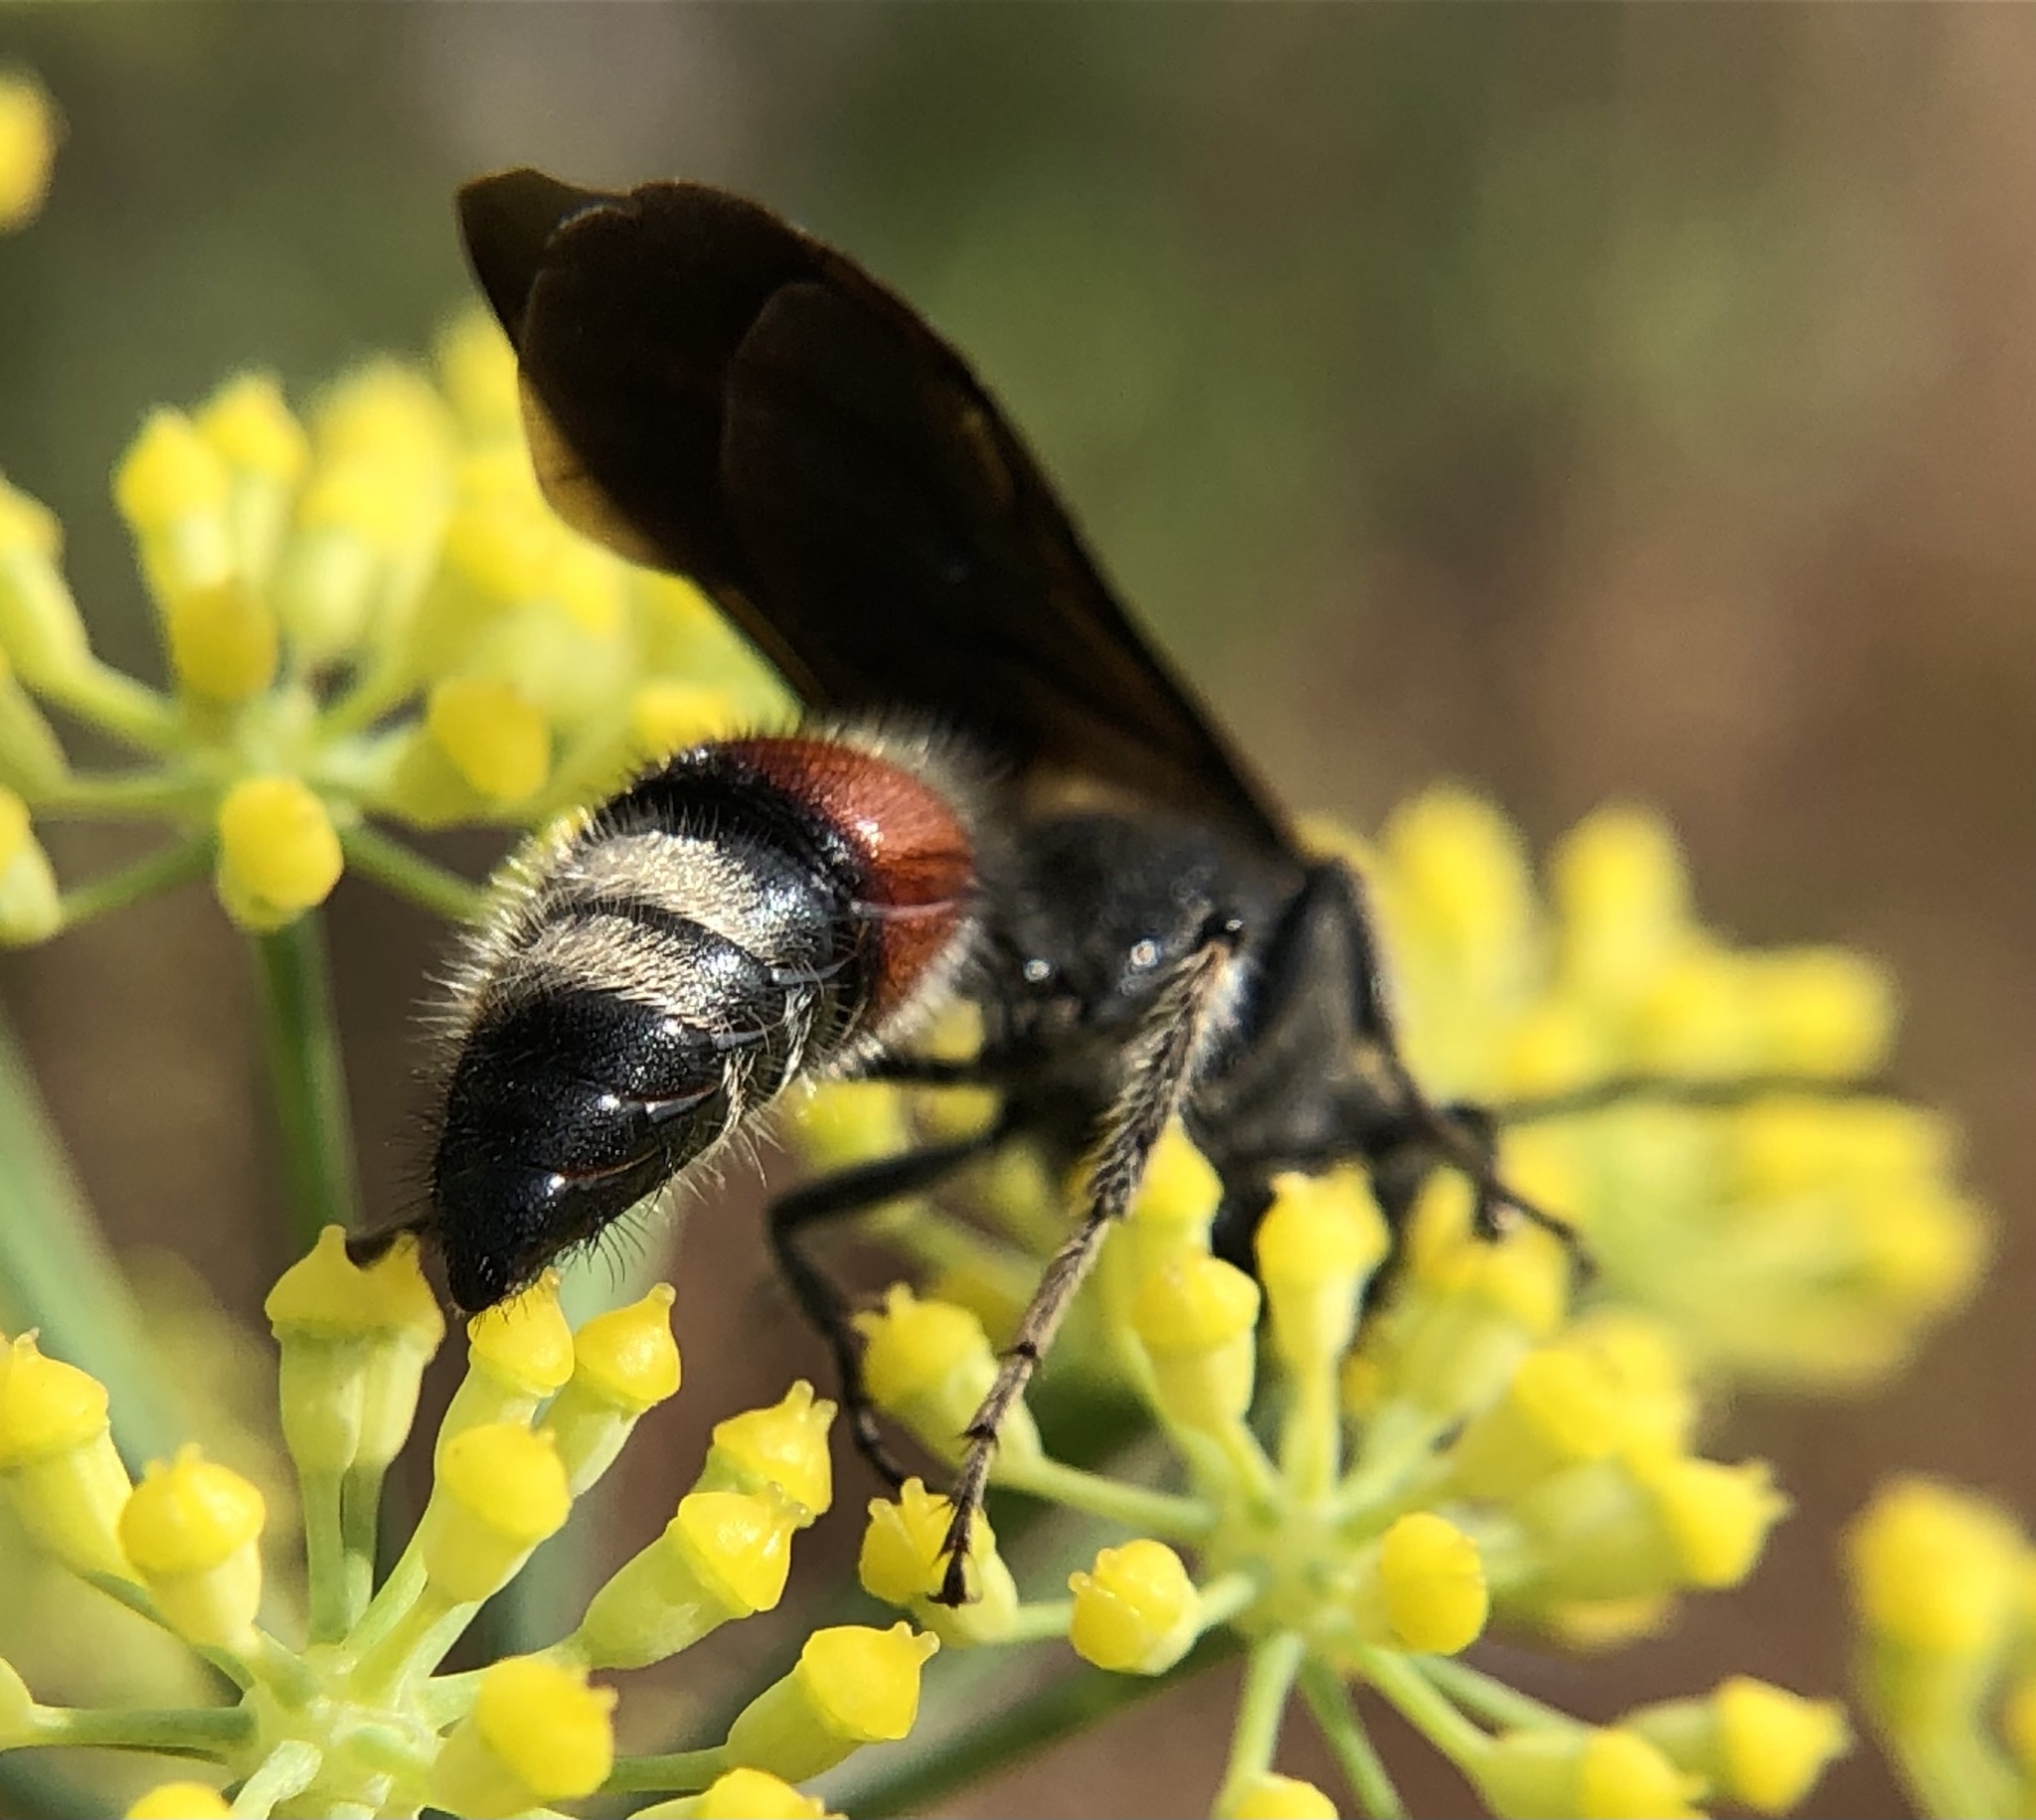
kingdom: Animalia
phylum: Arthropoda
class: Insecta
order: Hymenoptera
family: Mutillidae
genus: Nemka
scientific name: Nemka viduata
